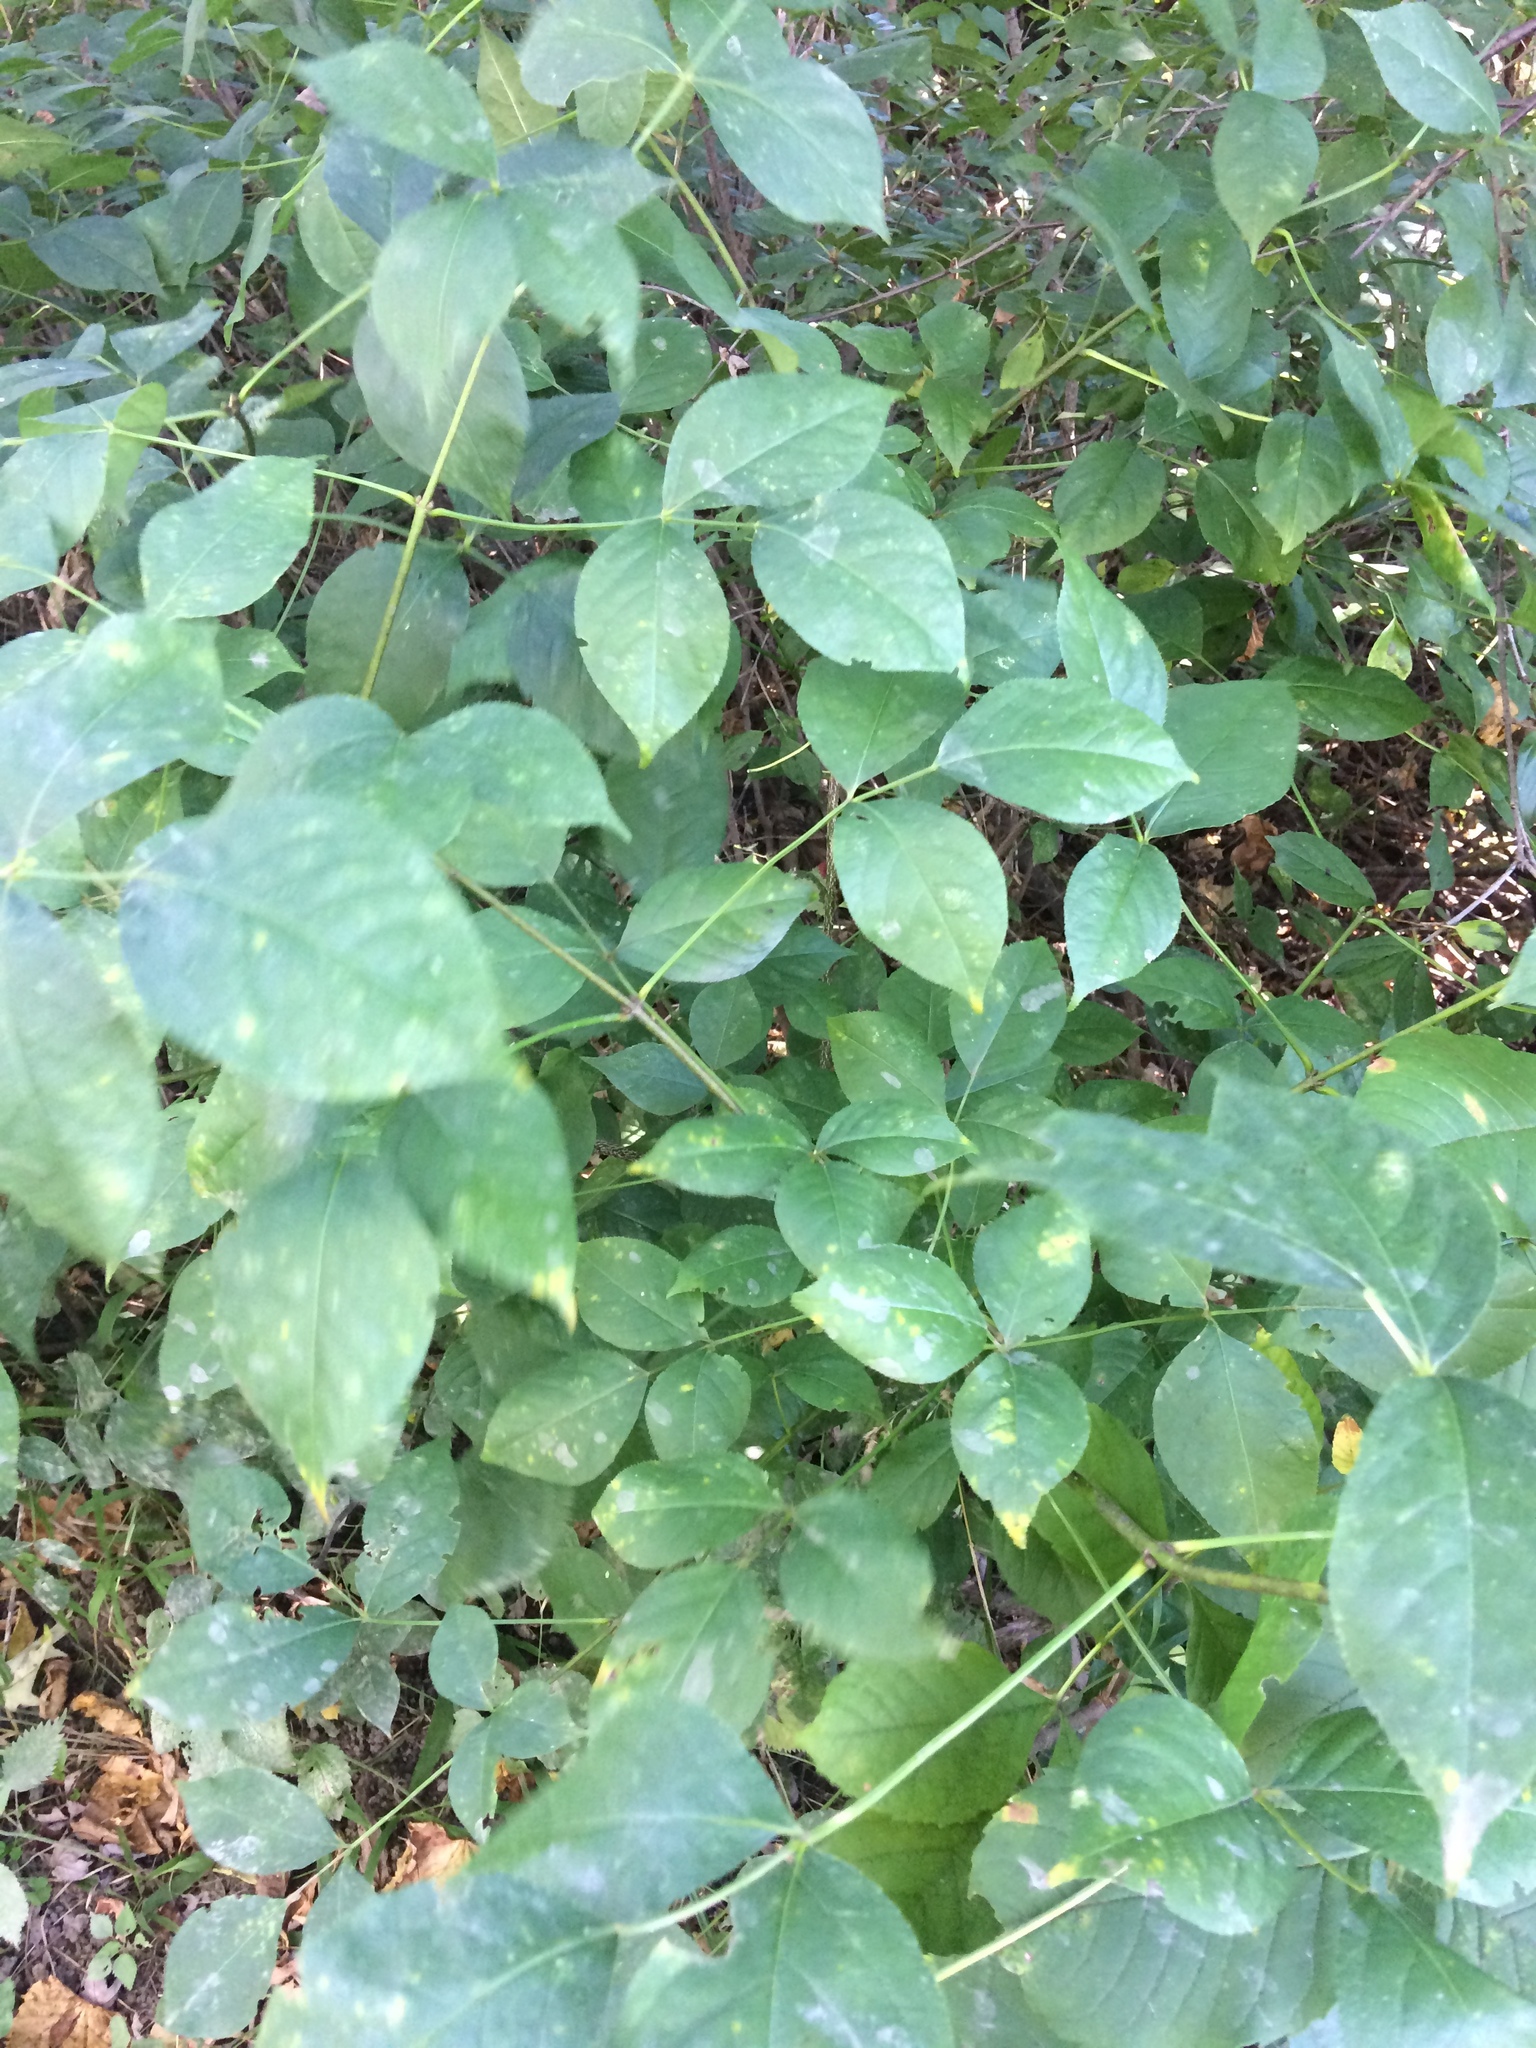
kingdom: Plantae
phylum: Tracheophyta
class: Magnoliopsida
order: Lamiales
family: Oleaceae
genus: Fraxinus
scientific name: Fraxinus pennsylvanica
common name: Green ash
